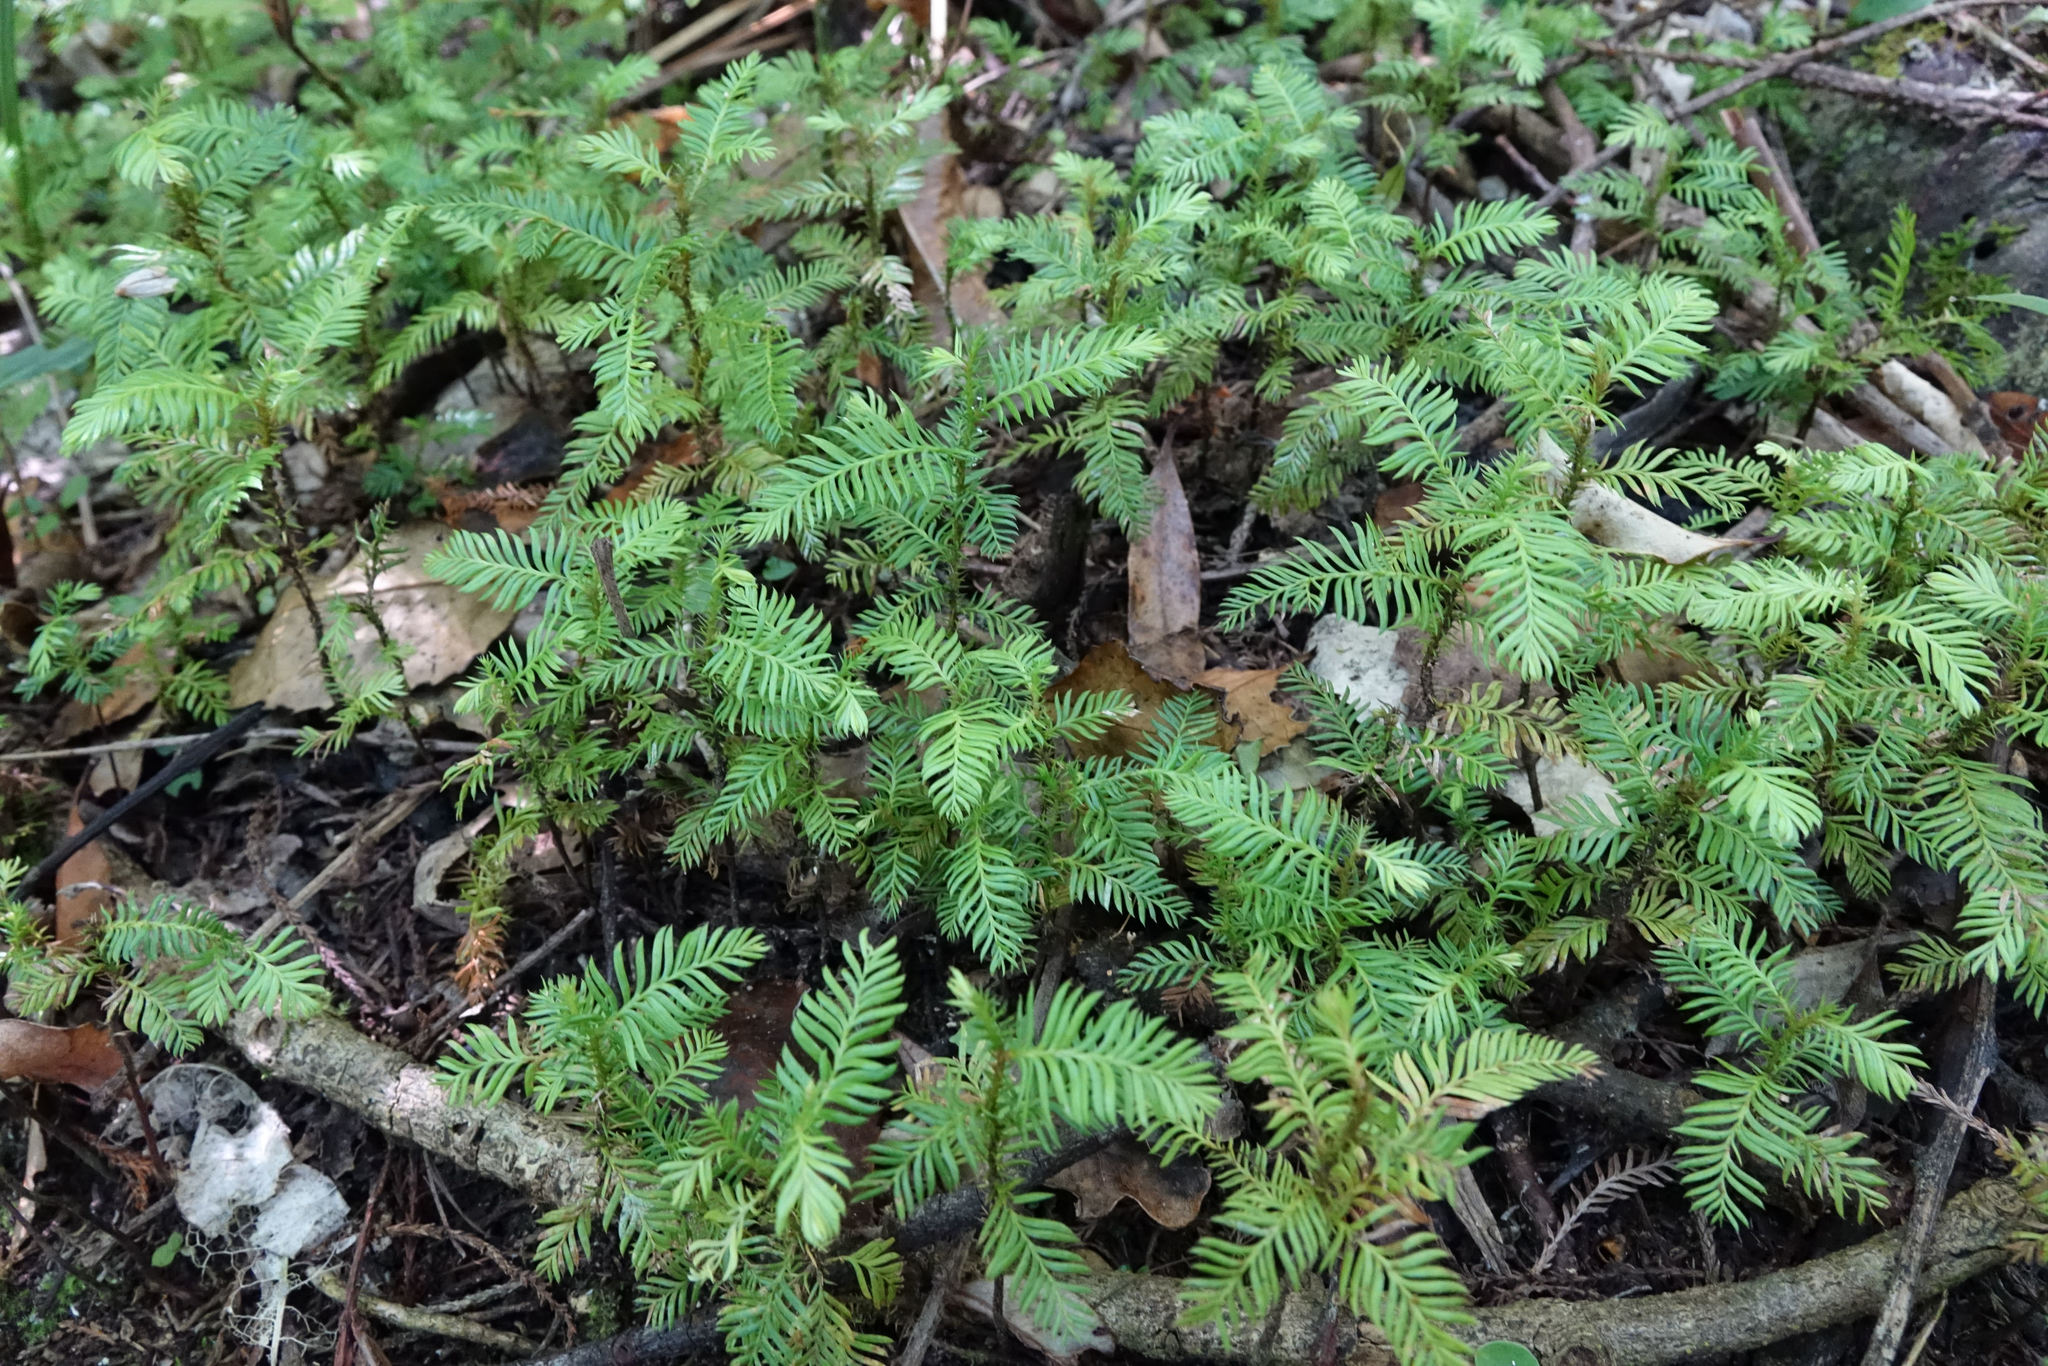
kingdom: Plantae
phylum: Tracheophyta
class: Pinopsida
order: Pinales
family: Podocarpaceae
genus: Dacrycarpus
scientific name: Dacrycarpus dacrydioides
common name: White pine
